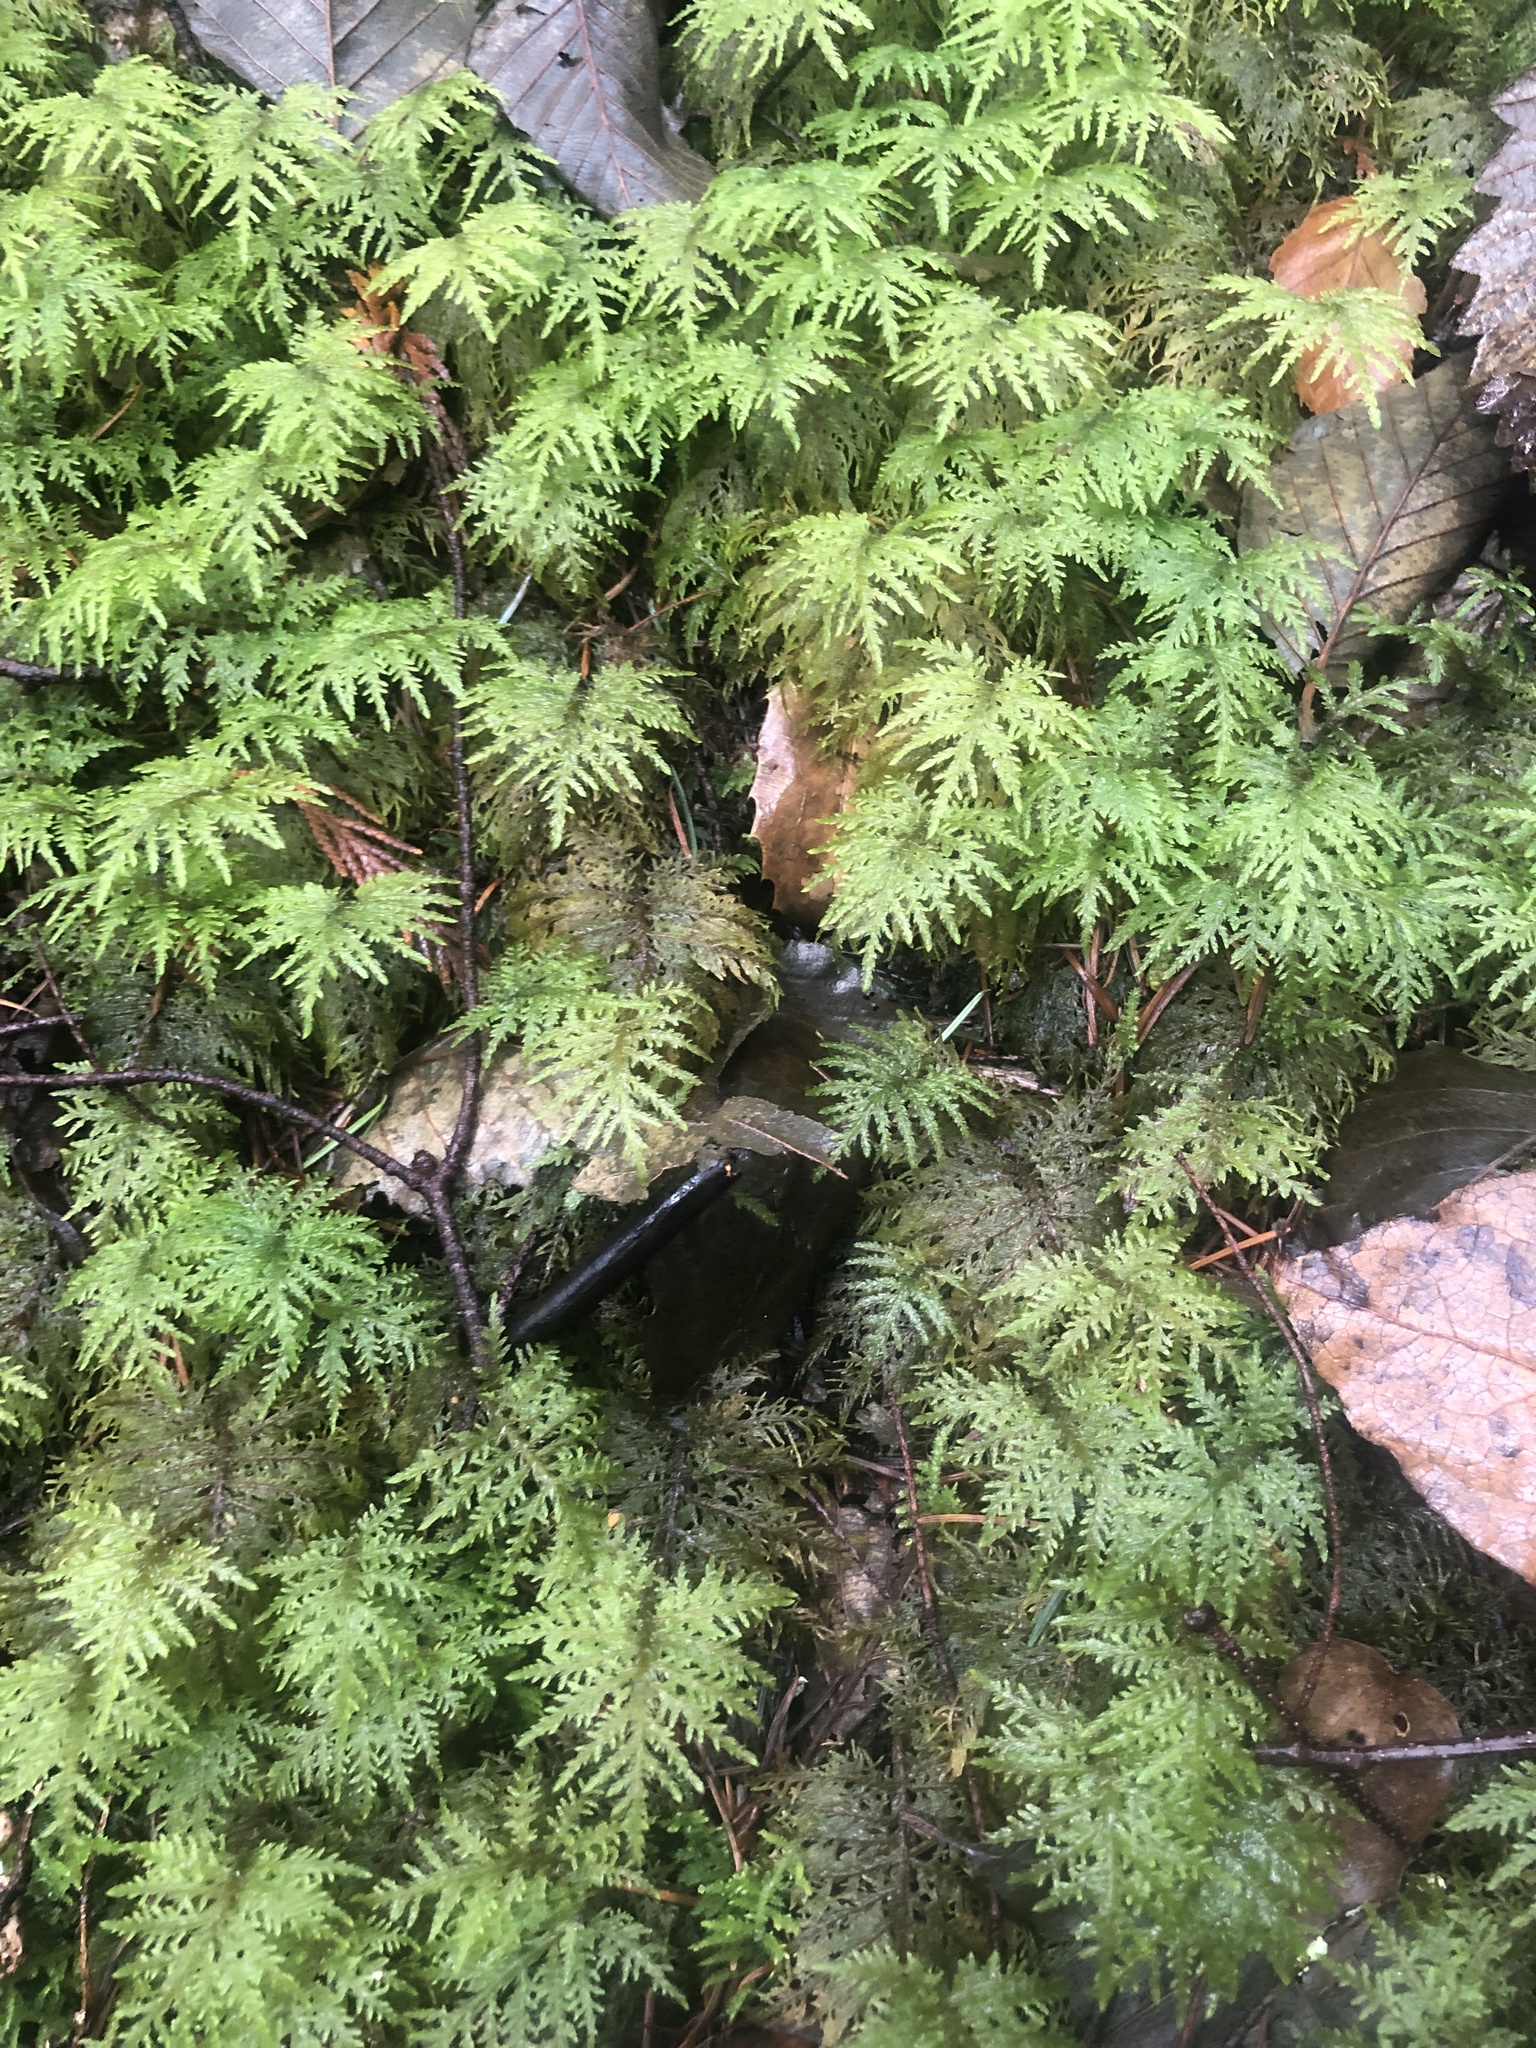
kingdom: Plantae
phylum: Bryophyta
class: Bryopsida
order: Hypnales
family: Hylocomiaceae
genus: Hylocomium
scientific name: Hylocomium splendens
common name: Stairstep moss
